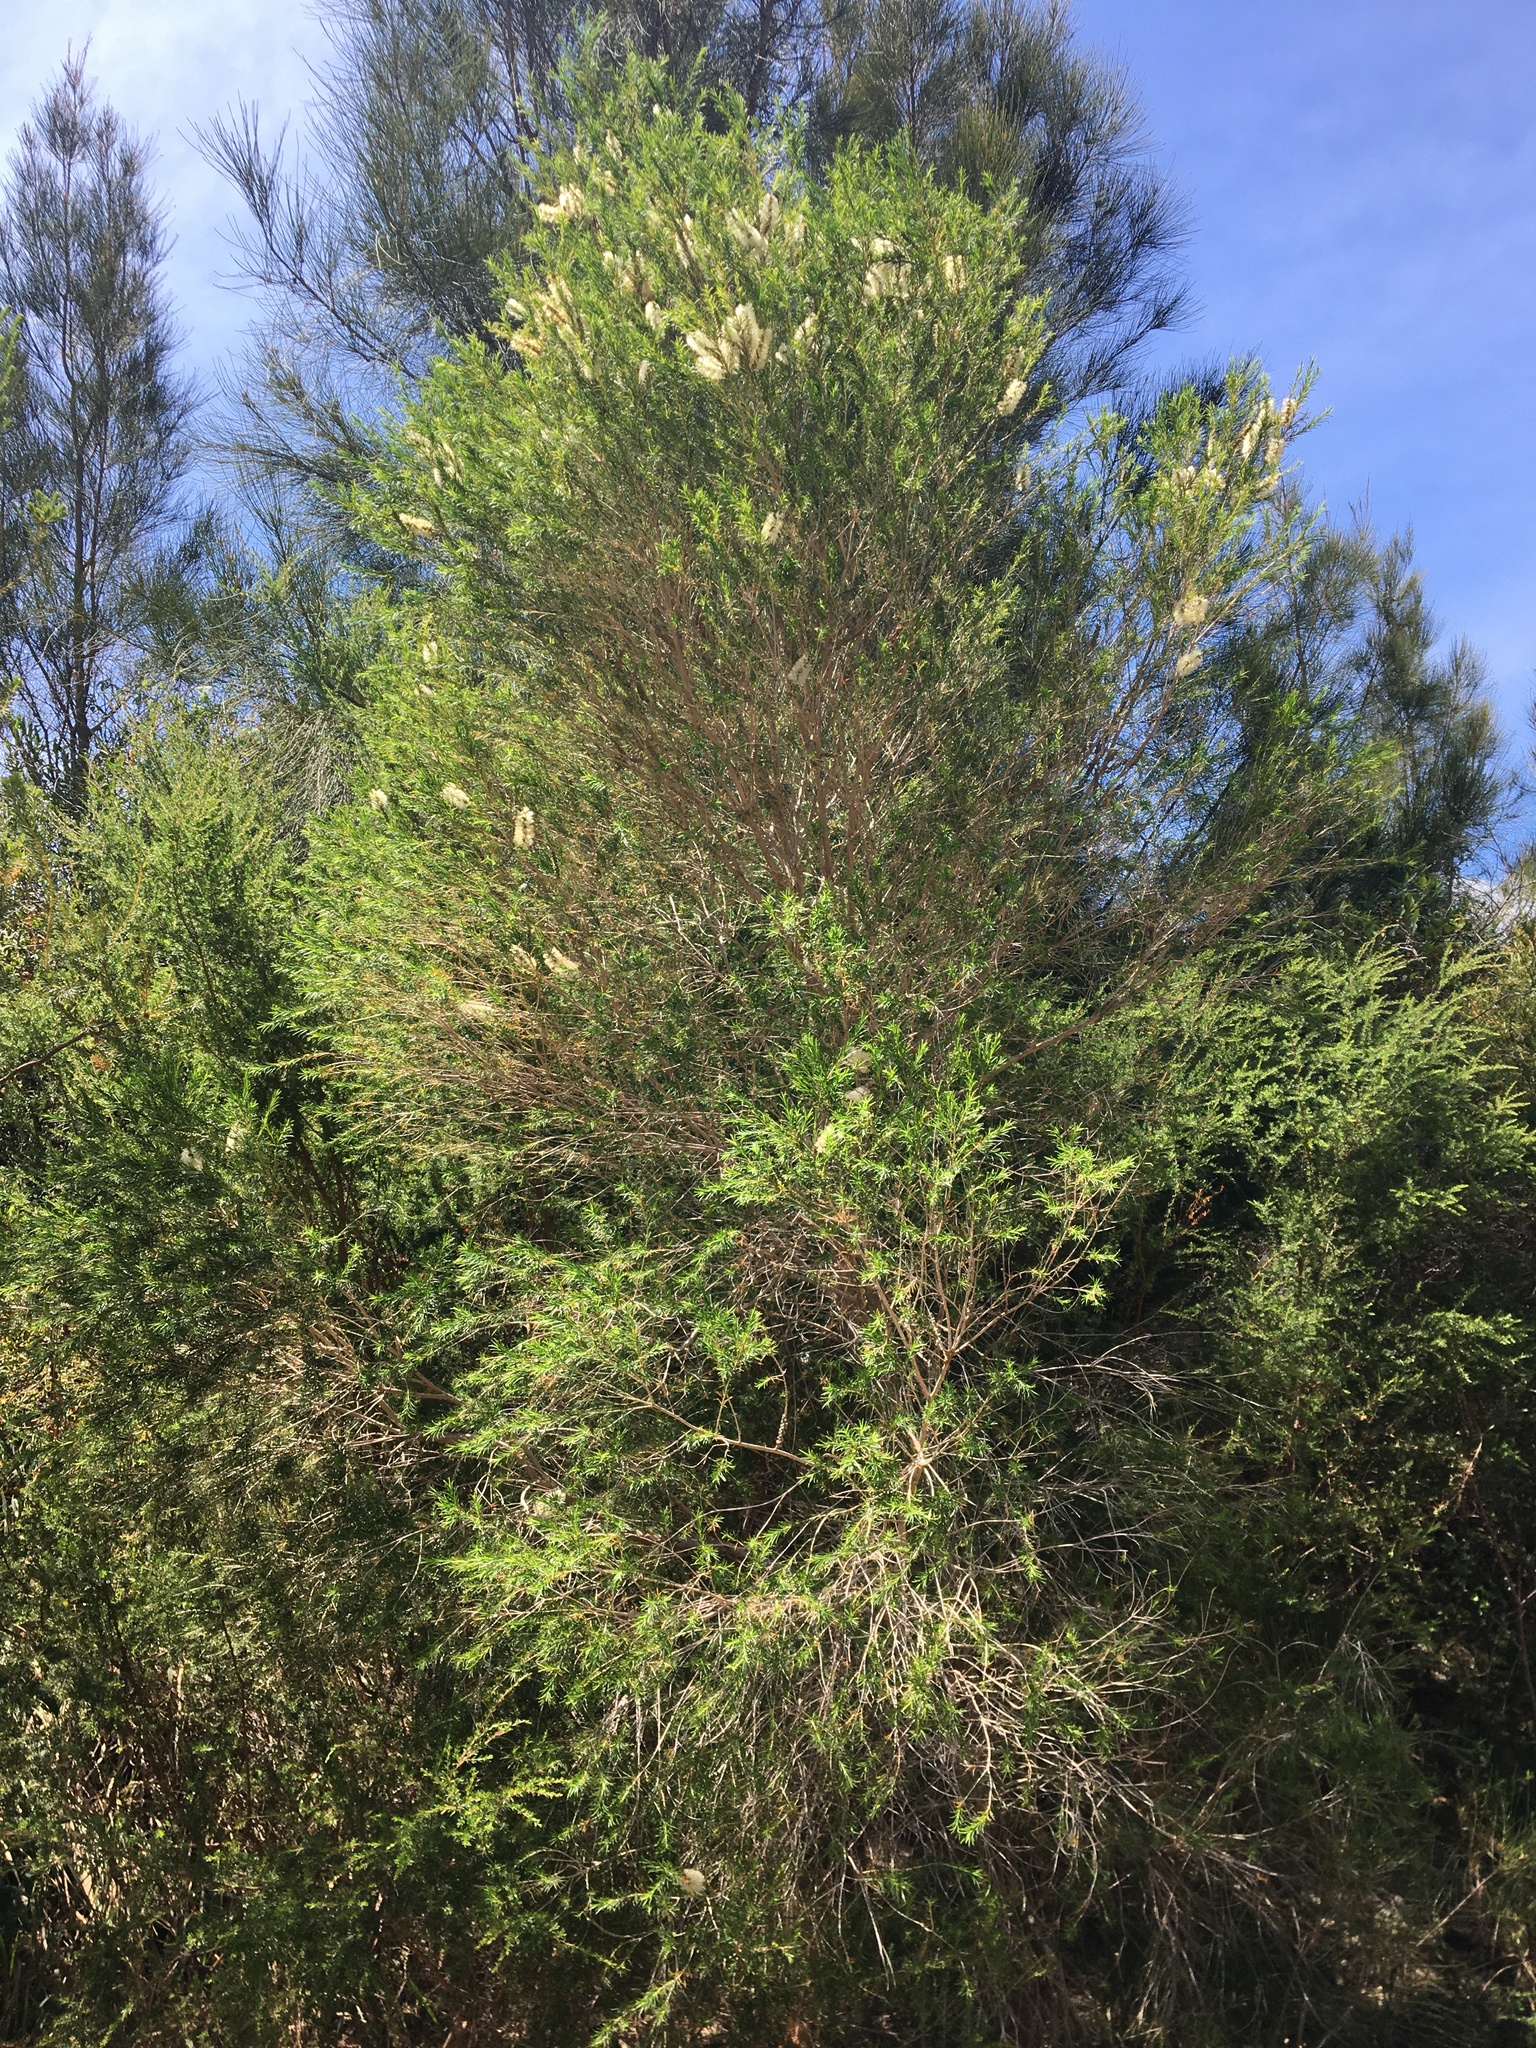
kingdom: Plantae
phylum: Tracheophyta
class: Magnoliopsida
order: Myrtales
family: Myrtaceae
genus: Melaleuca
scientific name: Melaleuca armillaris
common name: Bracelet honey myrtle
